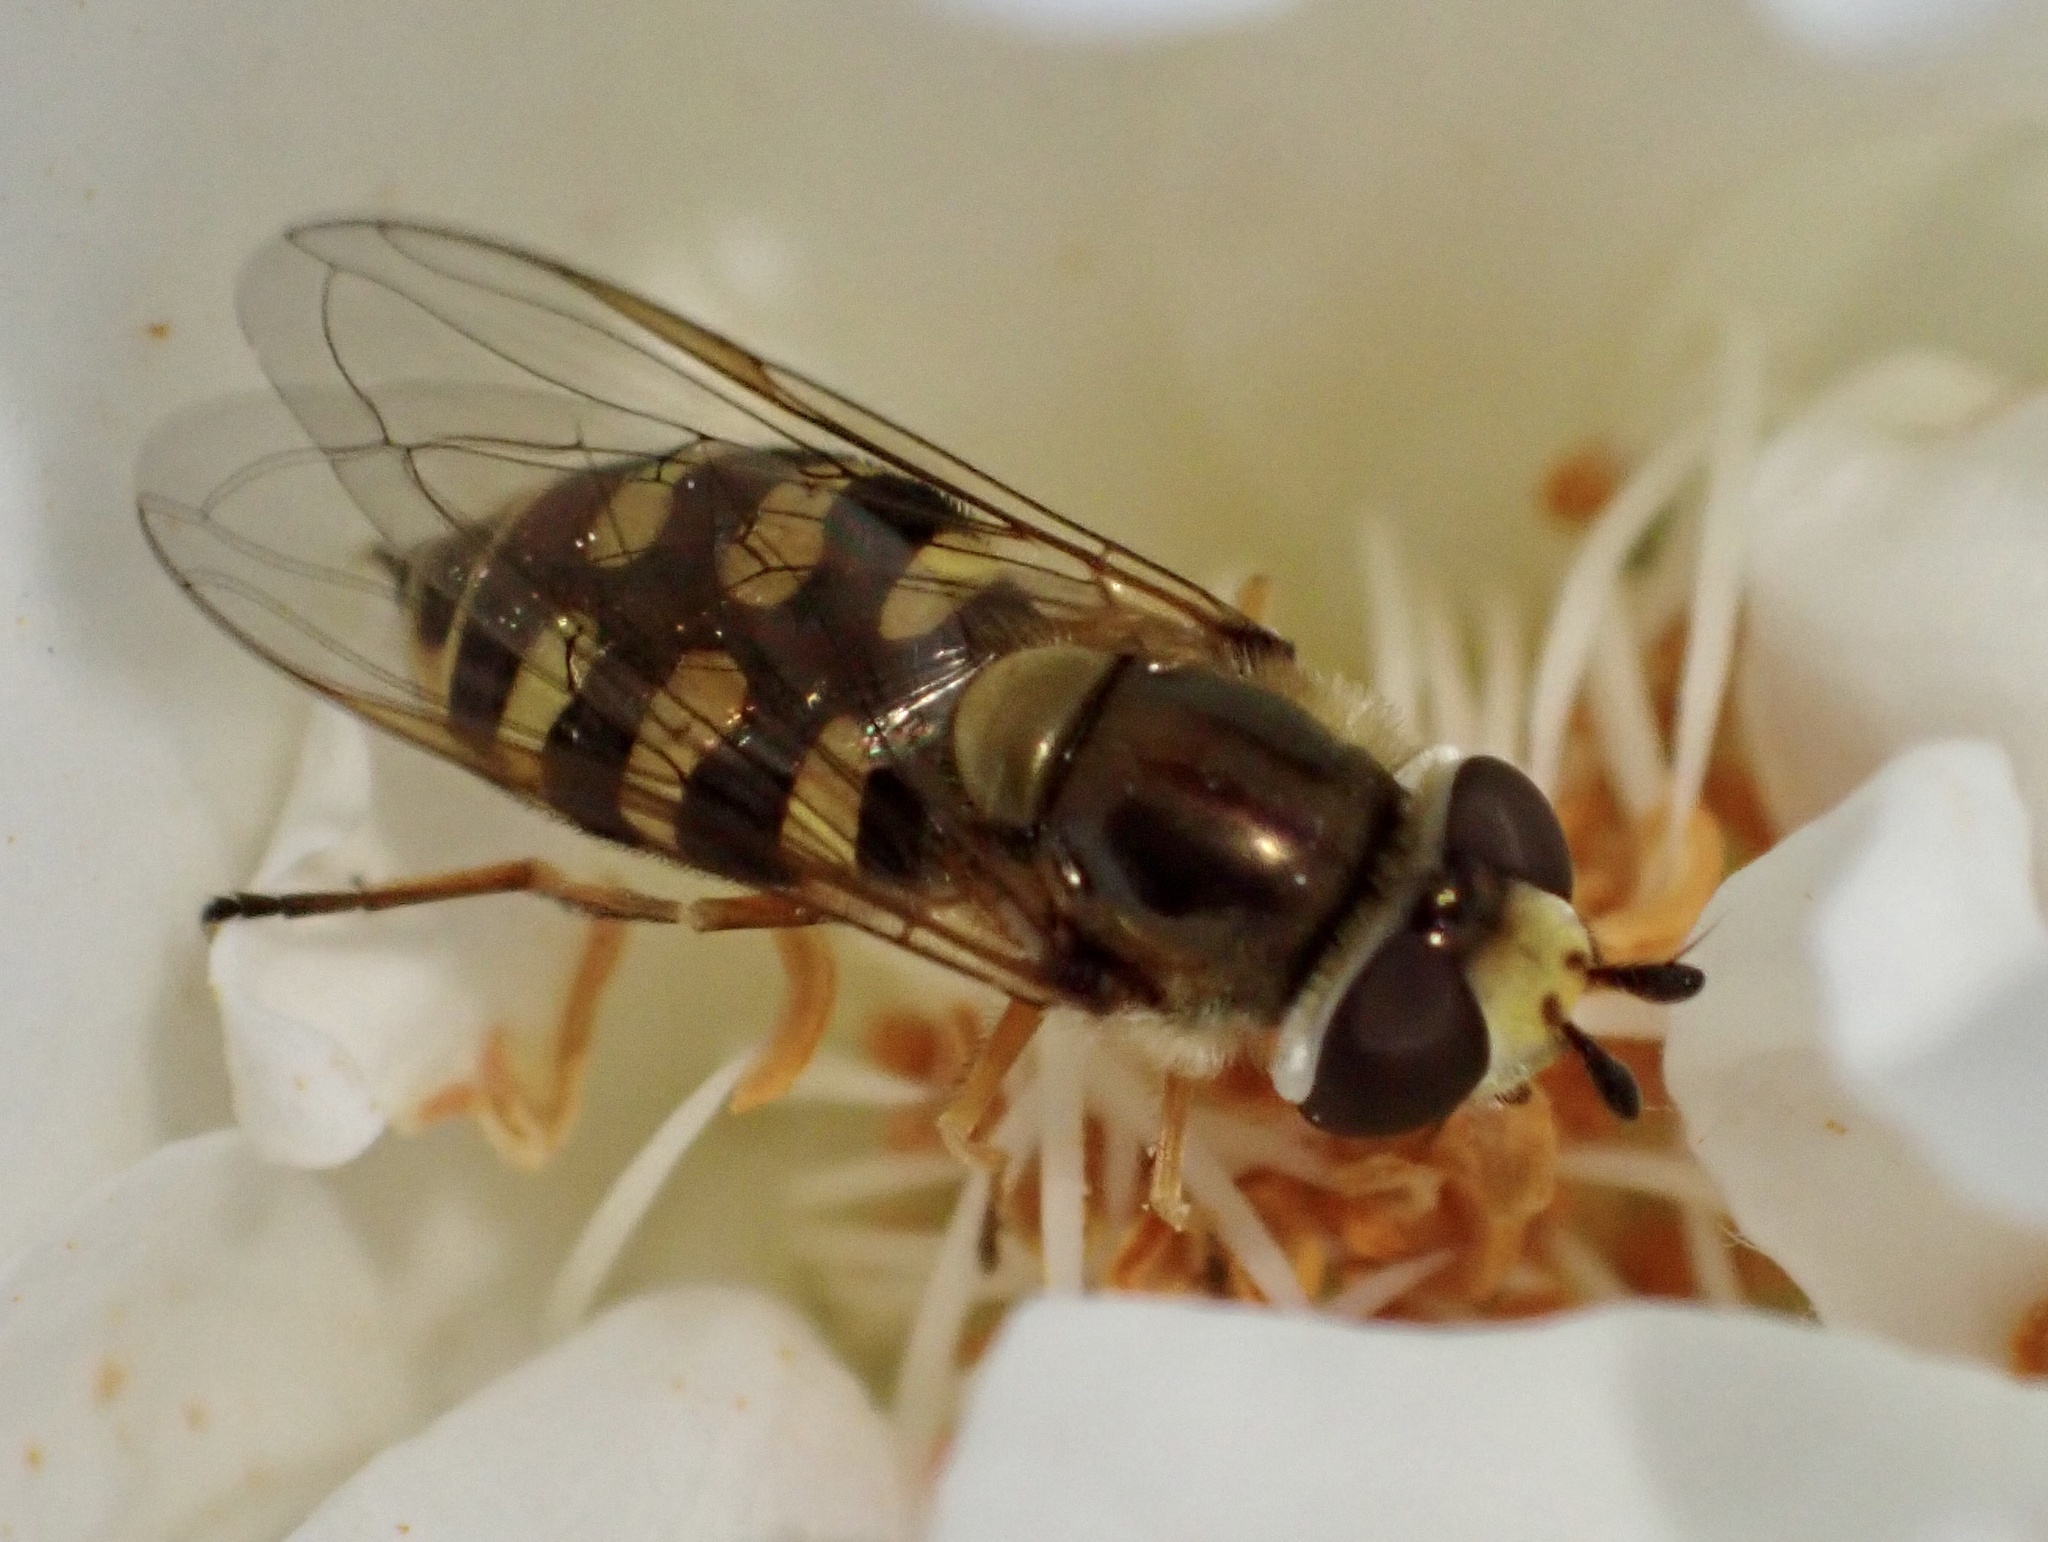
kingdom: Animalia
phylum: Arthropoda
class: Insecta
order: Diptera
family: Syrphidae
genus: Eupeodes
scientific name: Eupeodes corollae
